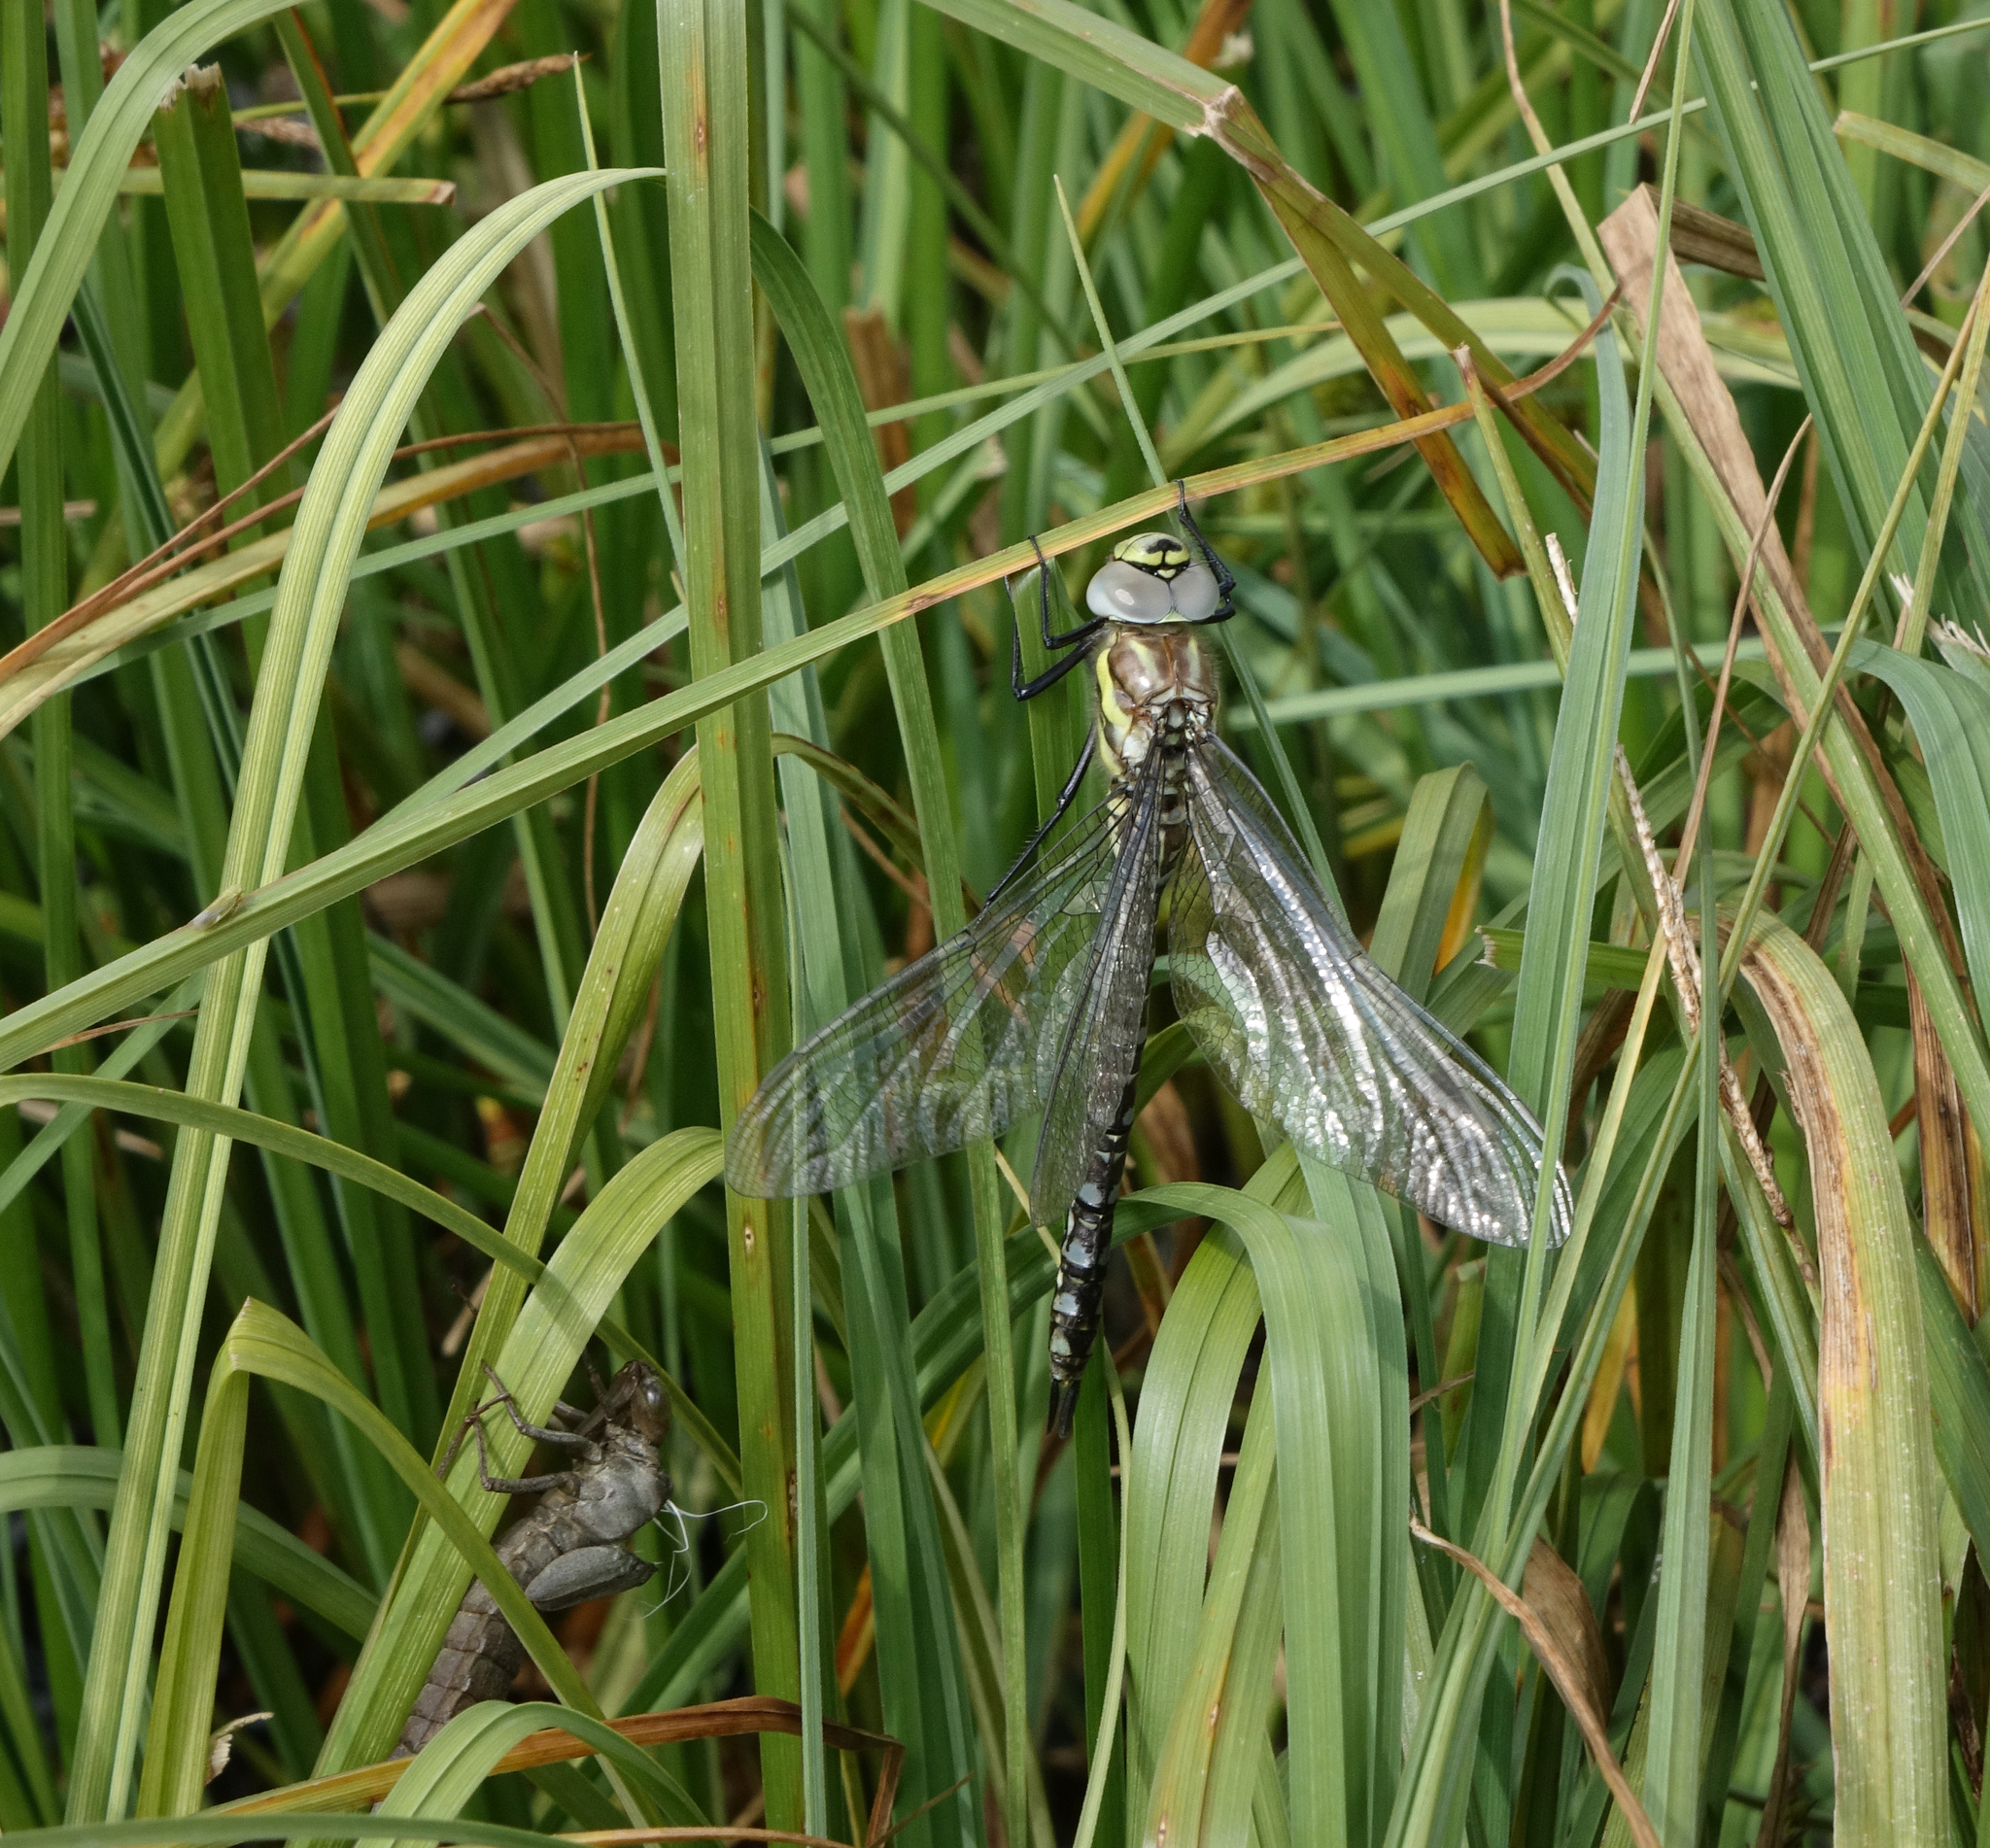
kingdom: Animalia
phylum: Arthropoda
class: Insecta
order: Odonata
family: Aeshnidae
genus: Aeshna
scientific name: Aeshna juncea
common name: Moorland hawker
